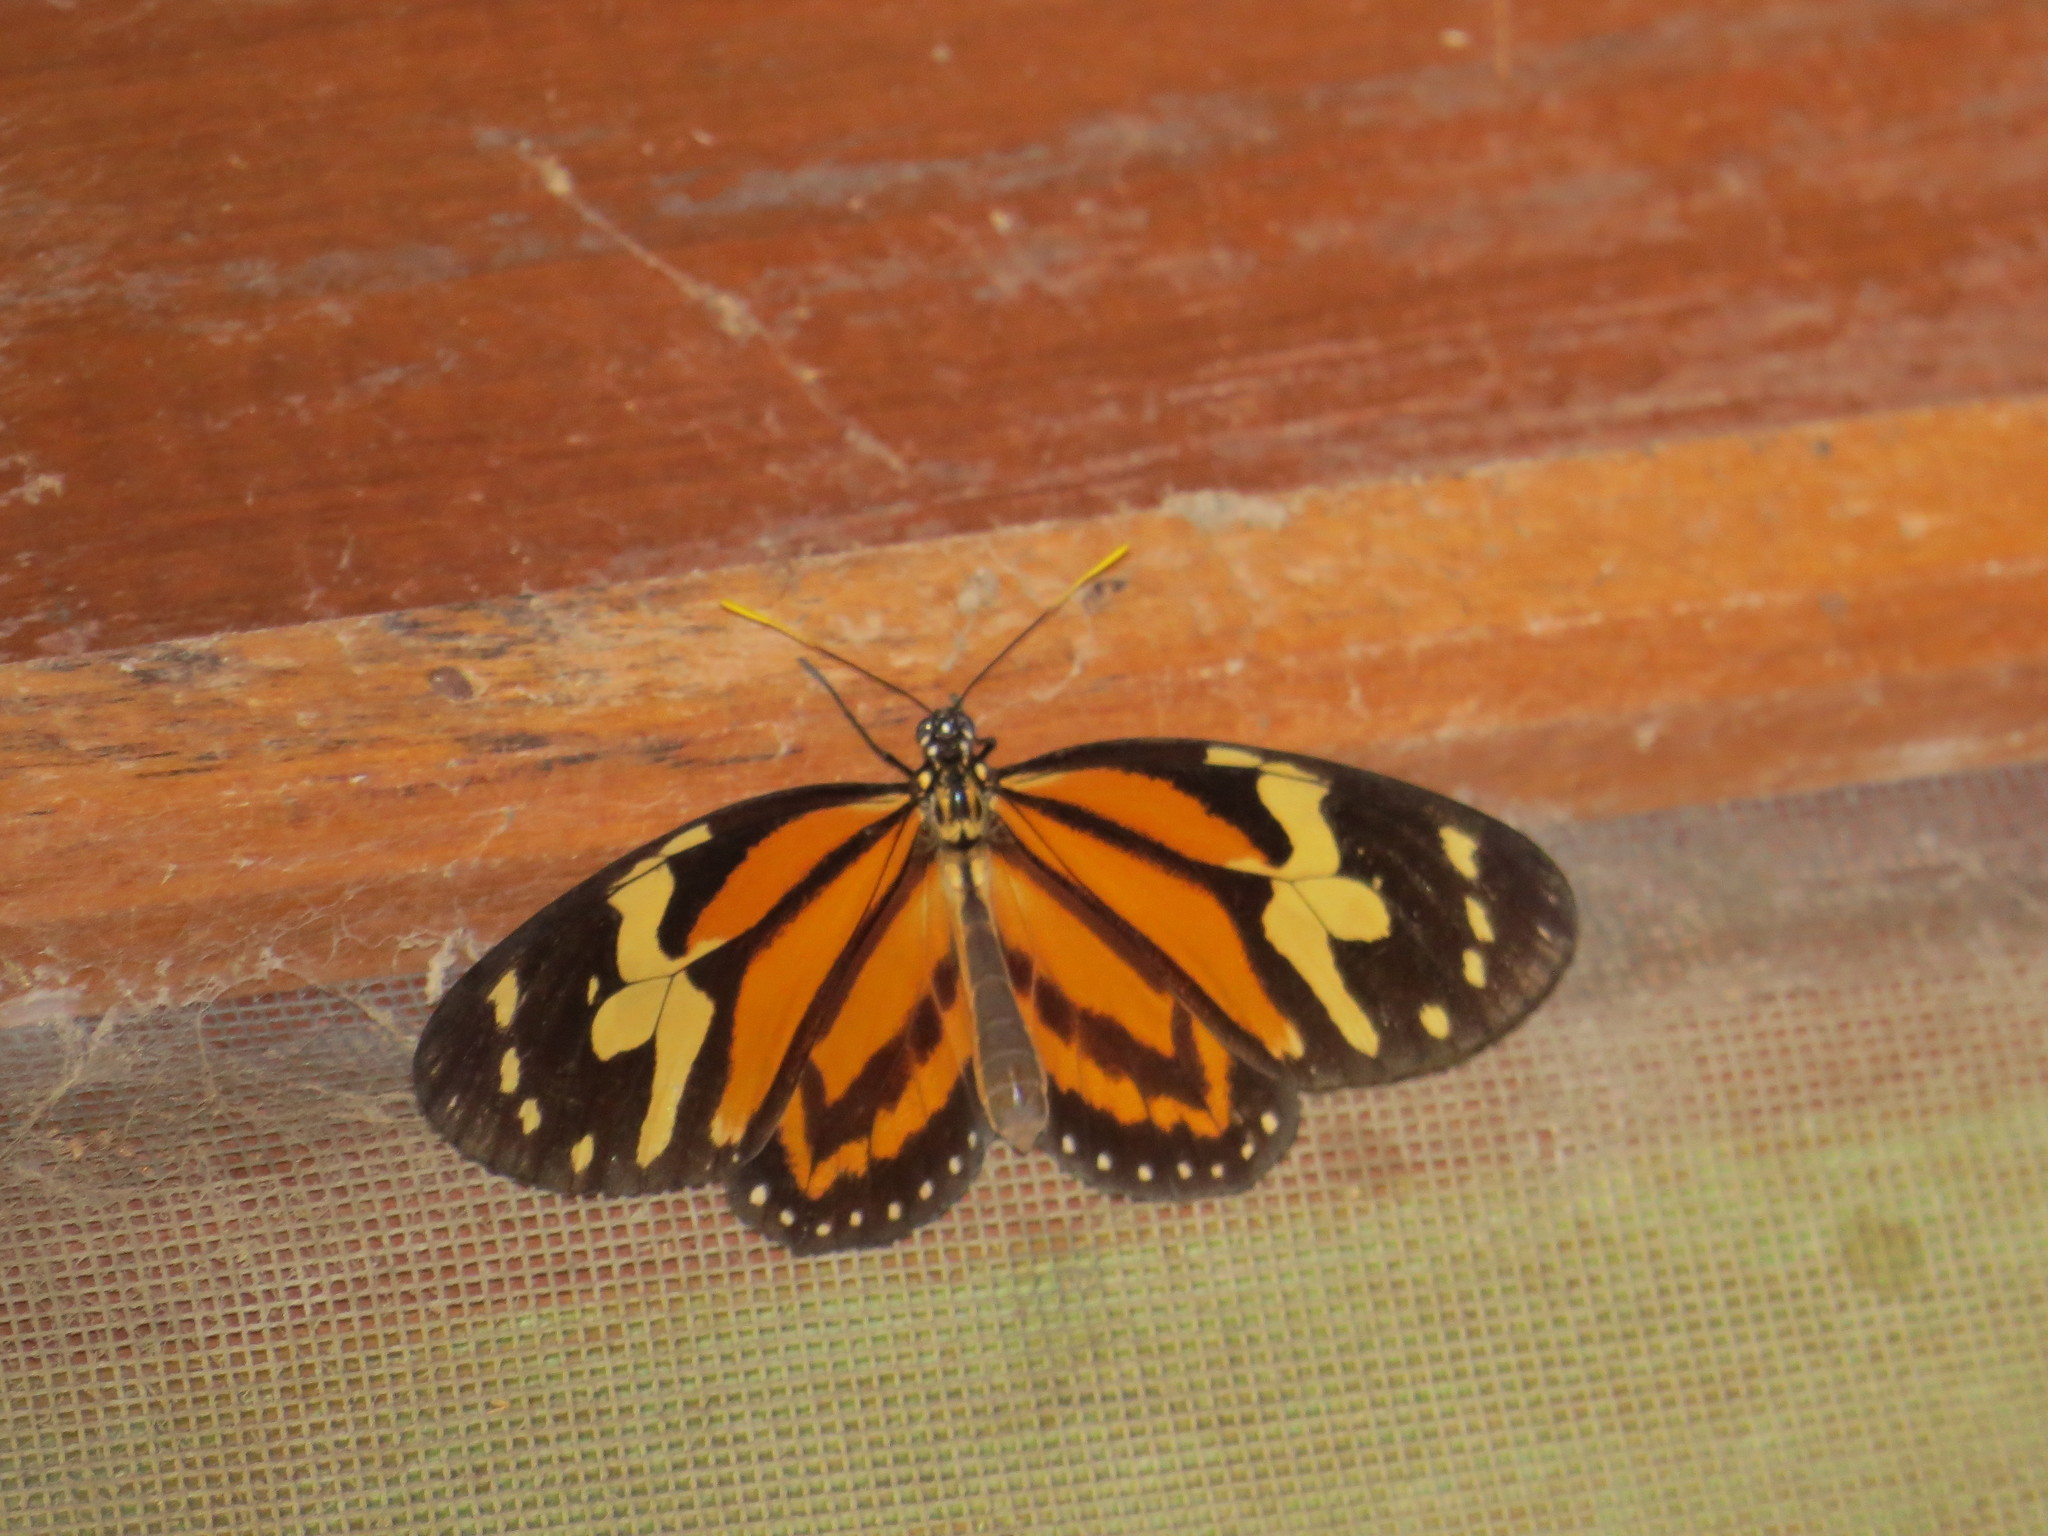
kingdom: Animalia
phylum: Arthropoda
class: Insecta
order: Lepidoptera
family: Nymphalidae
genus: Lycorea
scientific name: Lycorea cleobaea
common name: Tiger mimic-queen
